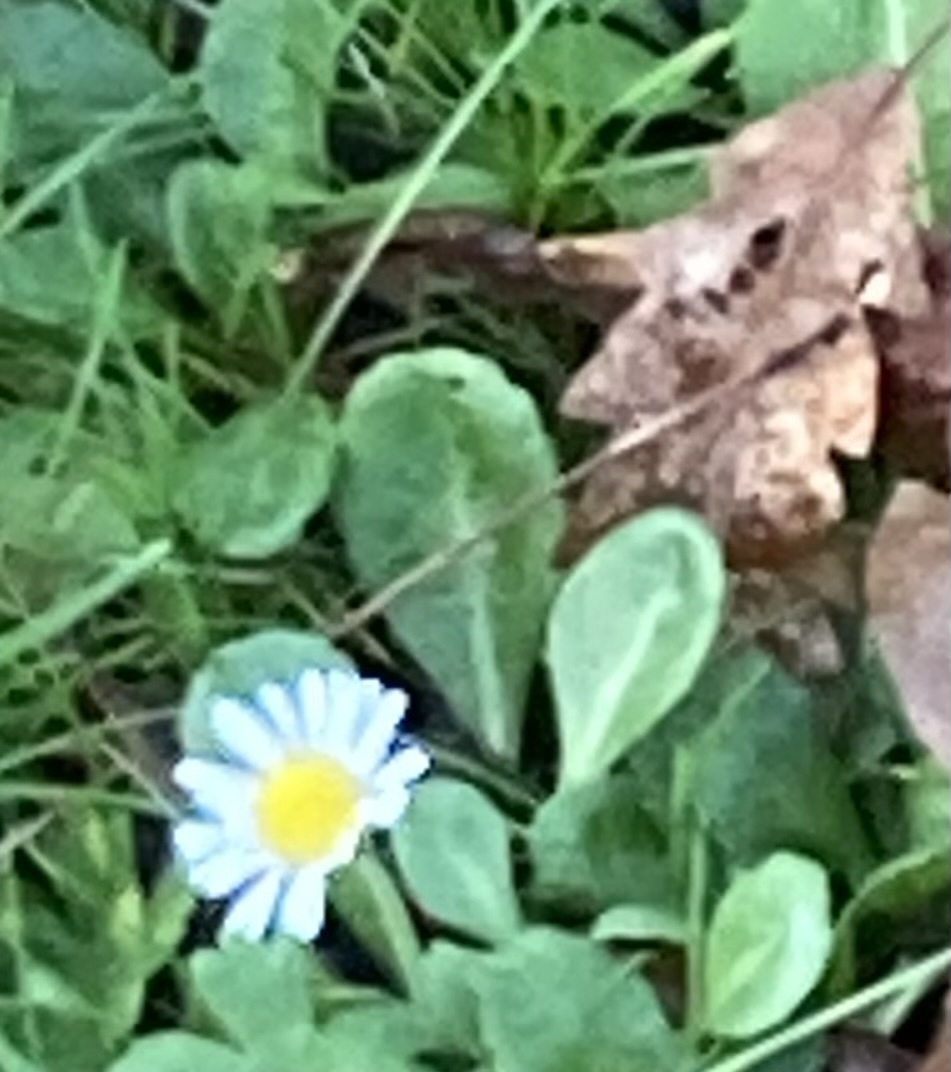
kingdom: Plantae
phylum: Tracheophyta
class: Magnoliopsida
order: Asterales
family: Asteraceae
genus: Bellis
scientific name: Bellis perennis
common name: Lawndaisy
